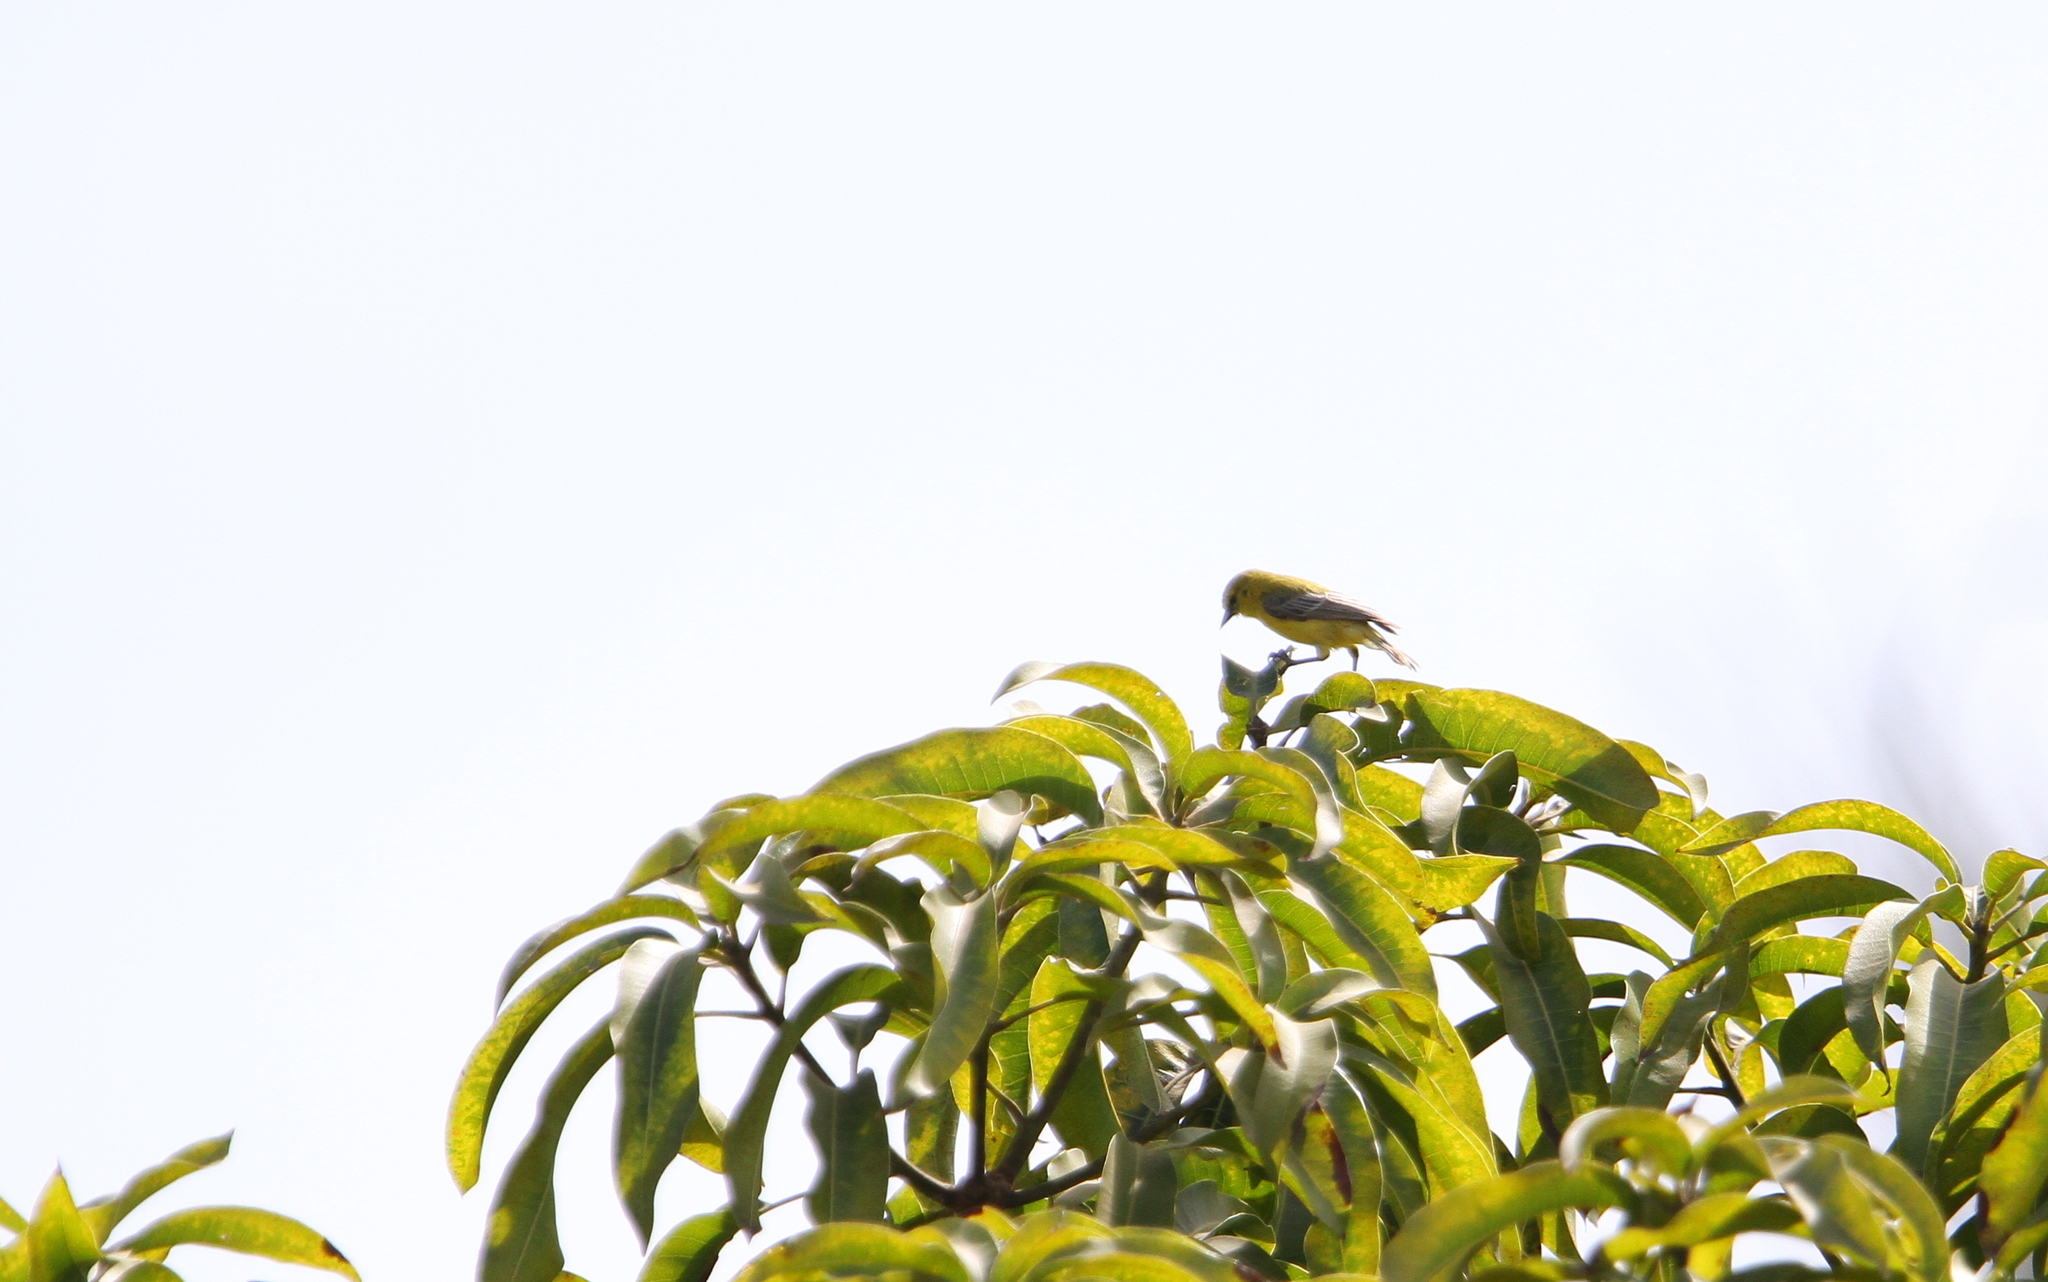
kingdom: Animalia
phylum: Chordata
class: Aves
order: Passeriformes
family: Remizidae
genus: Anthoscopus
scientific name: Anthoscopus parvulus
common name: Yellow penduline tit
